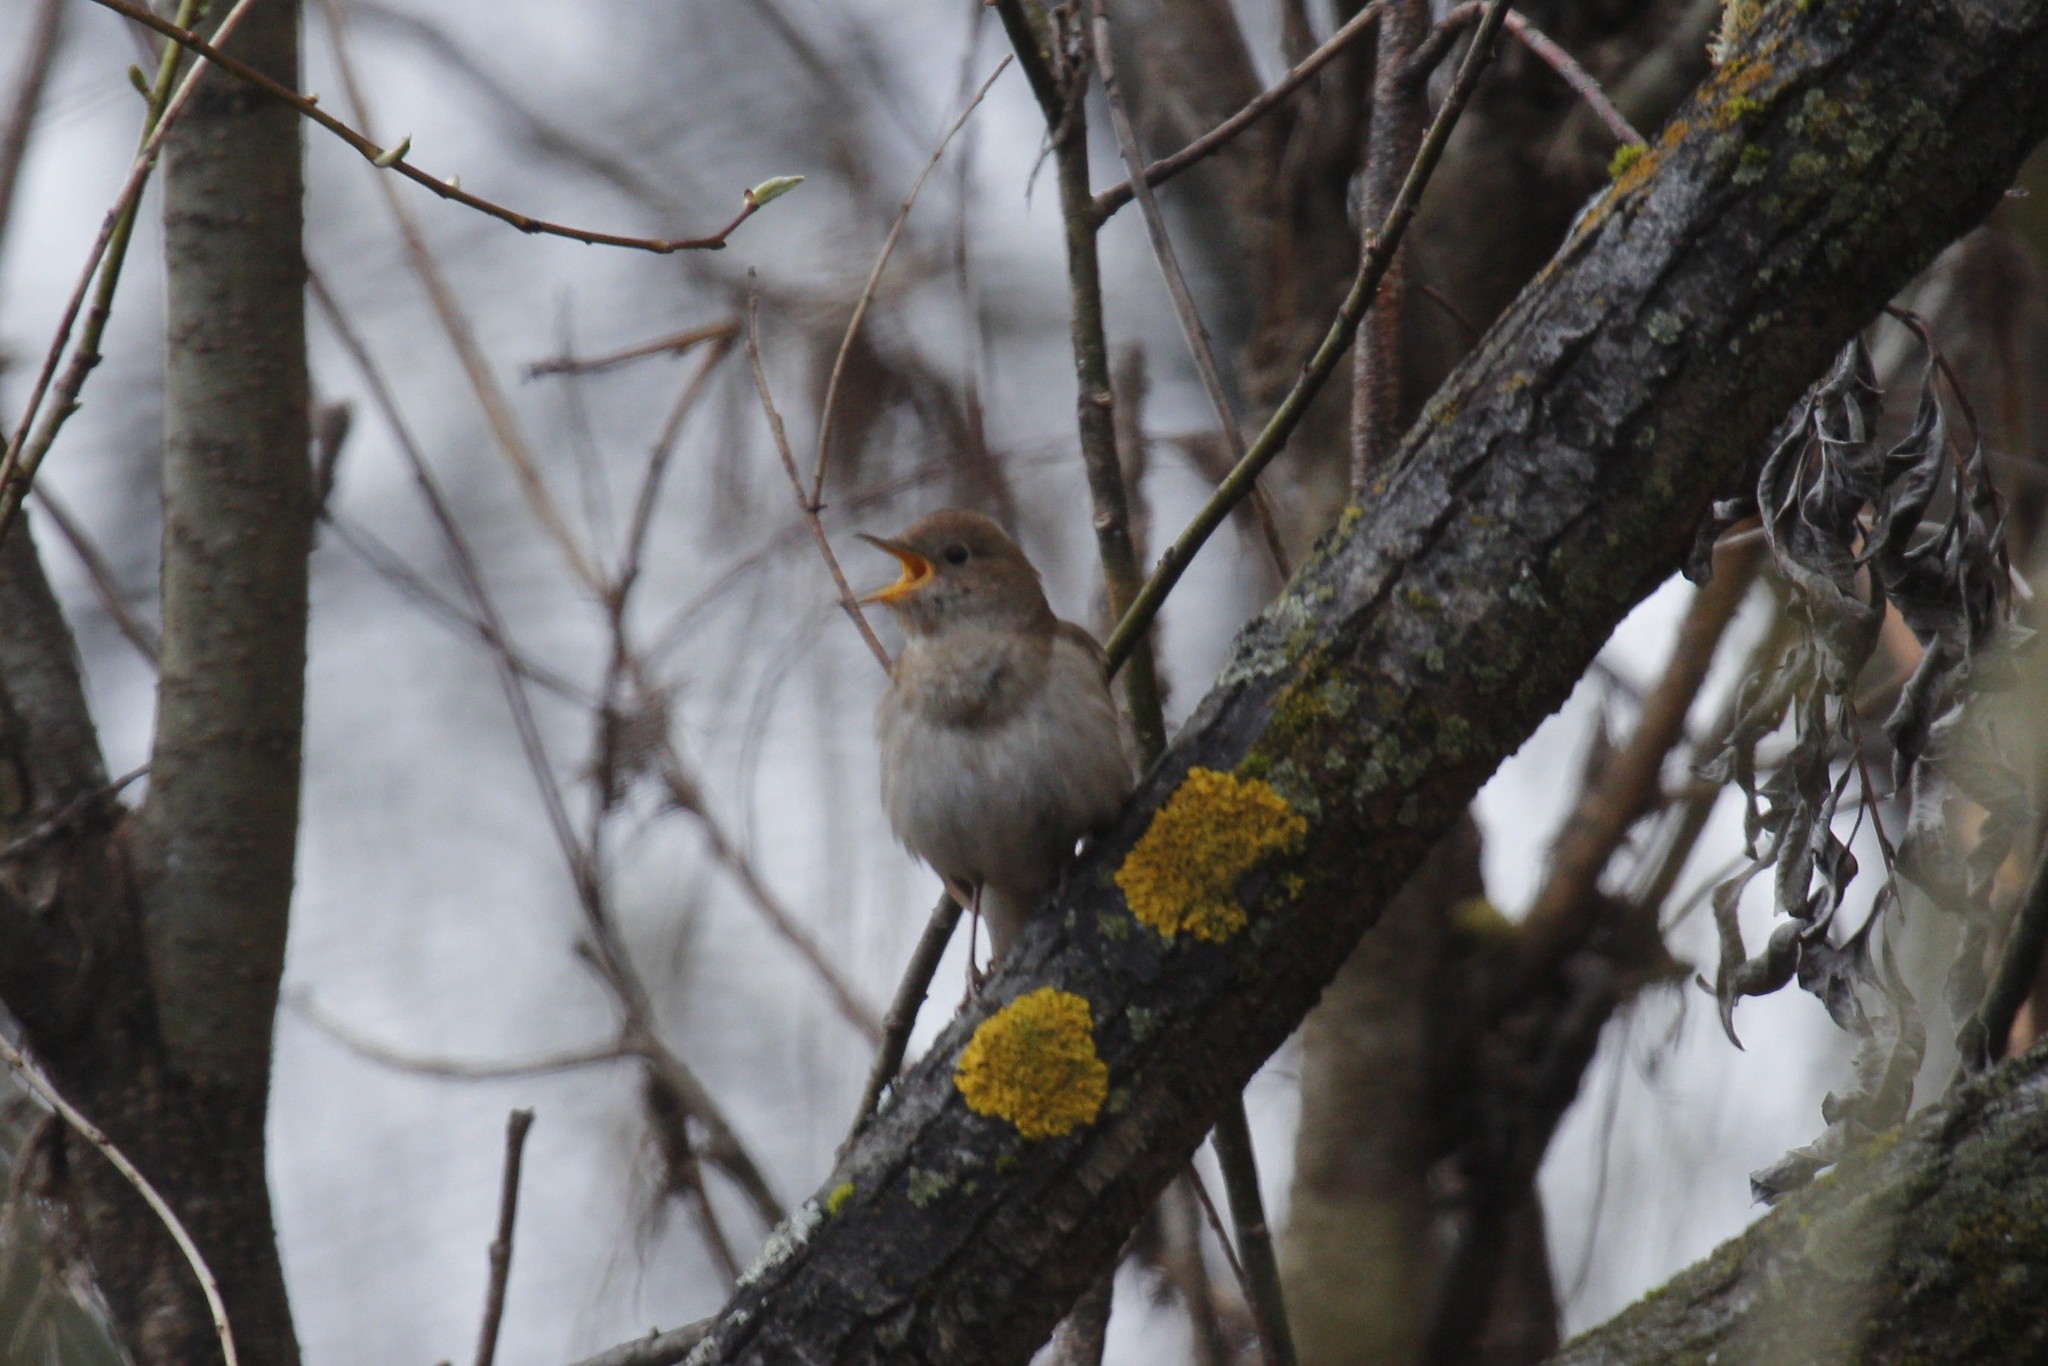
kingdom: Animalia
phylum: Chordata
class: Aves
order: Passeriformes
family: Muscicapidae
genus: Luscinia
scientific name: Luscinia luscinia
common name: Thrush nightingale
